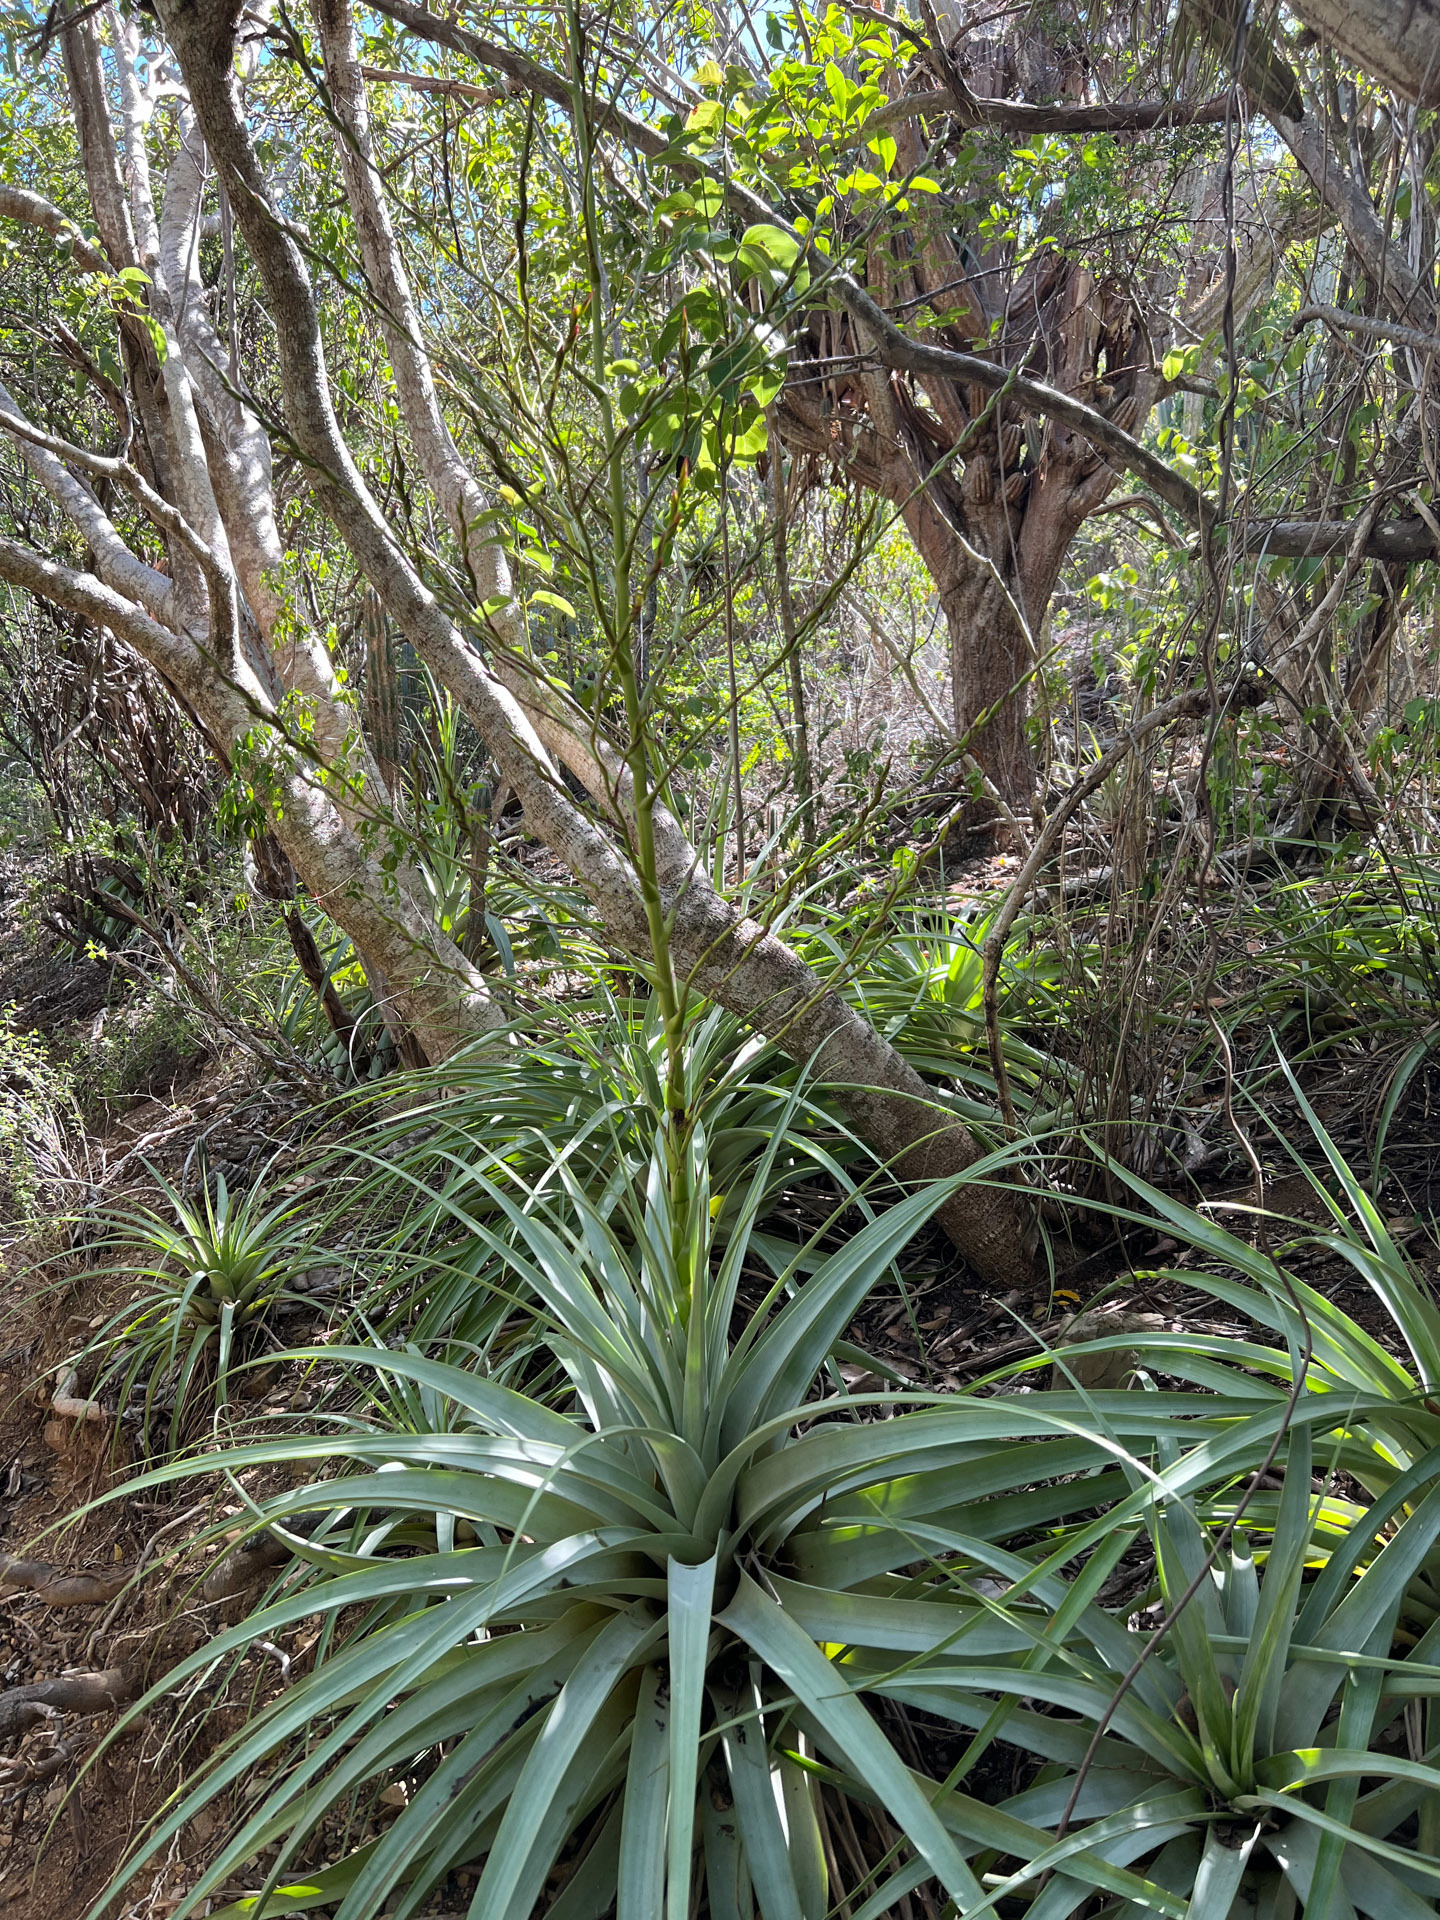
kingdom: Plantae
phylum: Tracheophyta
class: Liliopsida
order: Poales
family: Bromeliaceae
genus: Tillandsia
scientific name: Tillandsia utriculata
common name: Wild pine
